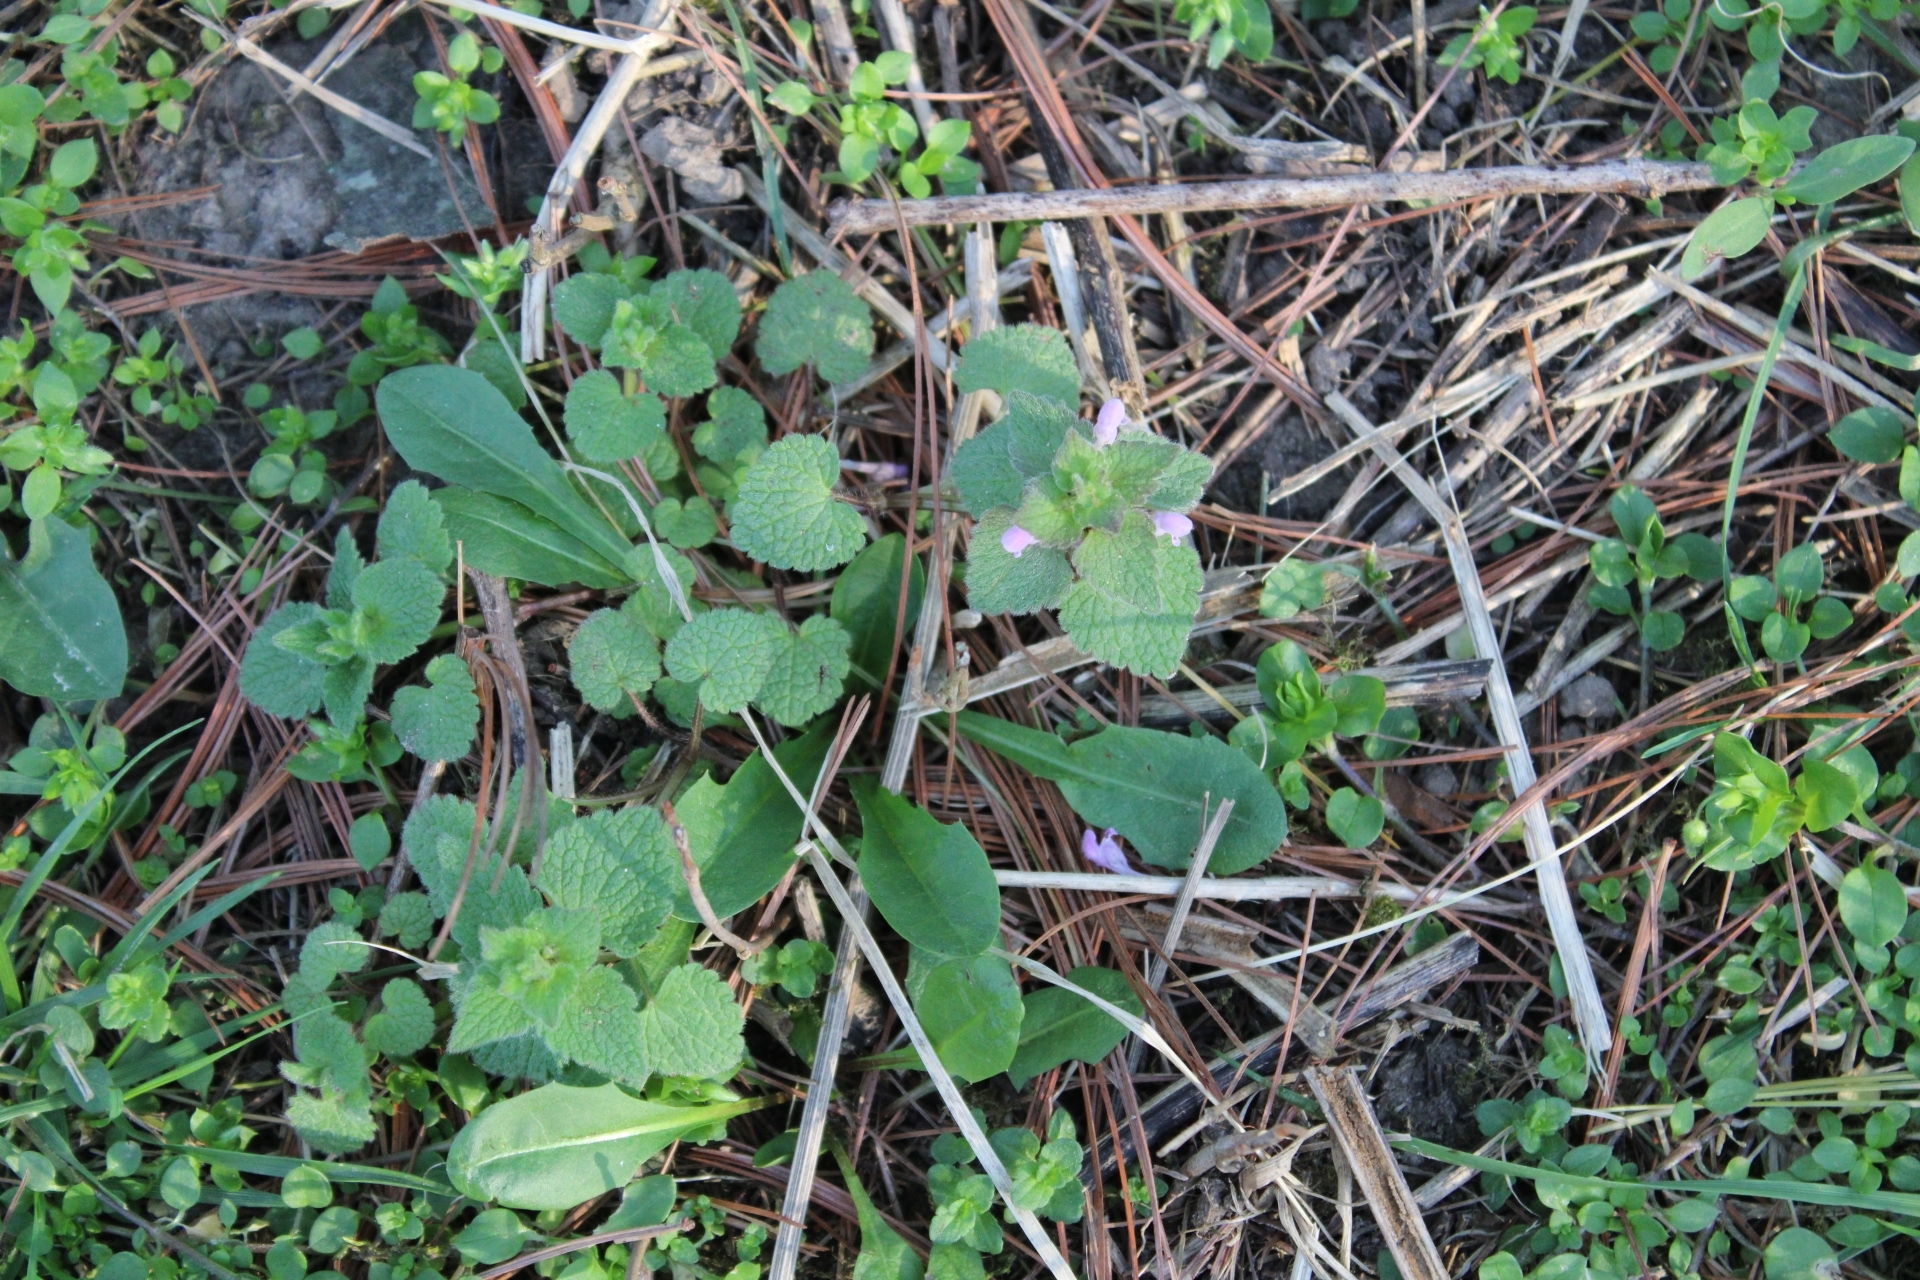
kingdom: Plantae
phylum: Tracheophyta
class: Magnoliopsida
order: Lamiales
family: Lamiaceae
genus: Lamium
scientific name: Lamium purpureum
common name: Red dead-nettle
